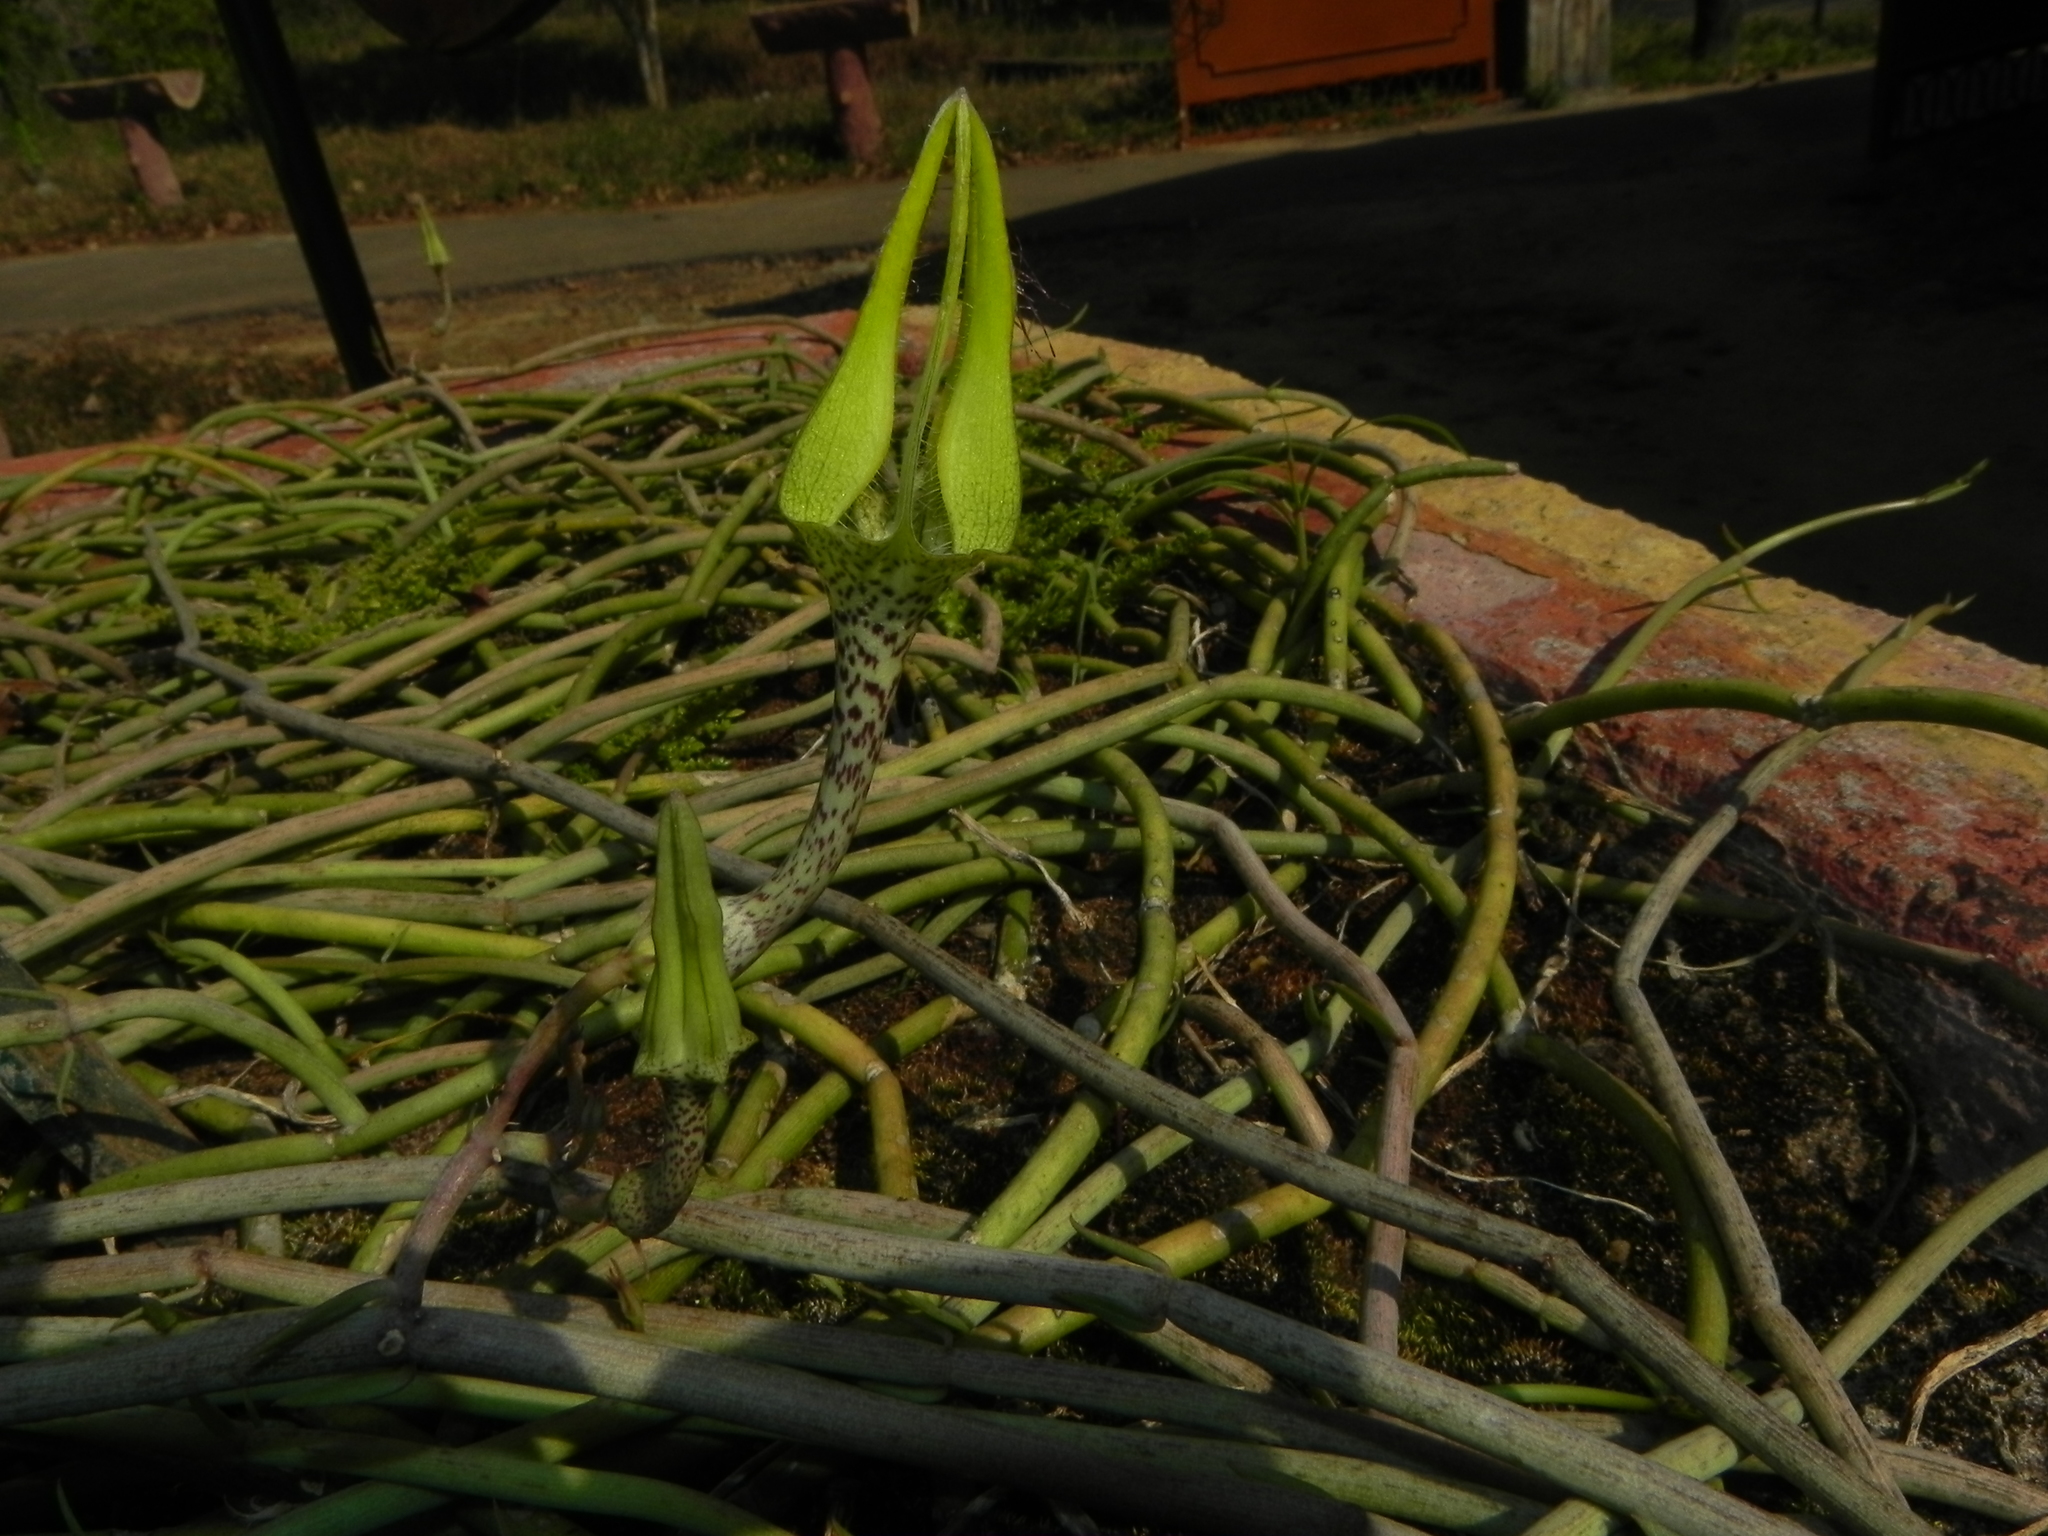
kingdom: Plantae
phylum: Tracheophyta
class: Magnoliopsida
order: Gentianales
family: Apocynaceae
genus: Ceropegia
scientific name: Ceropegia juncea
